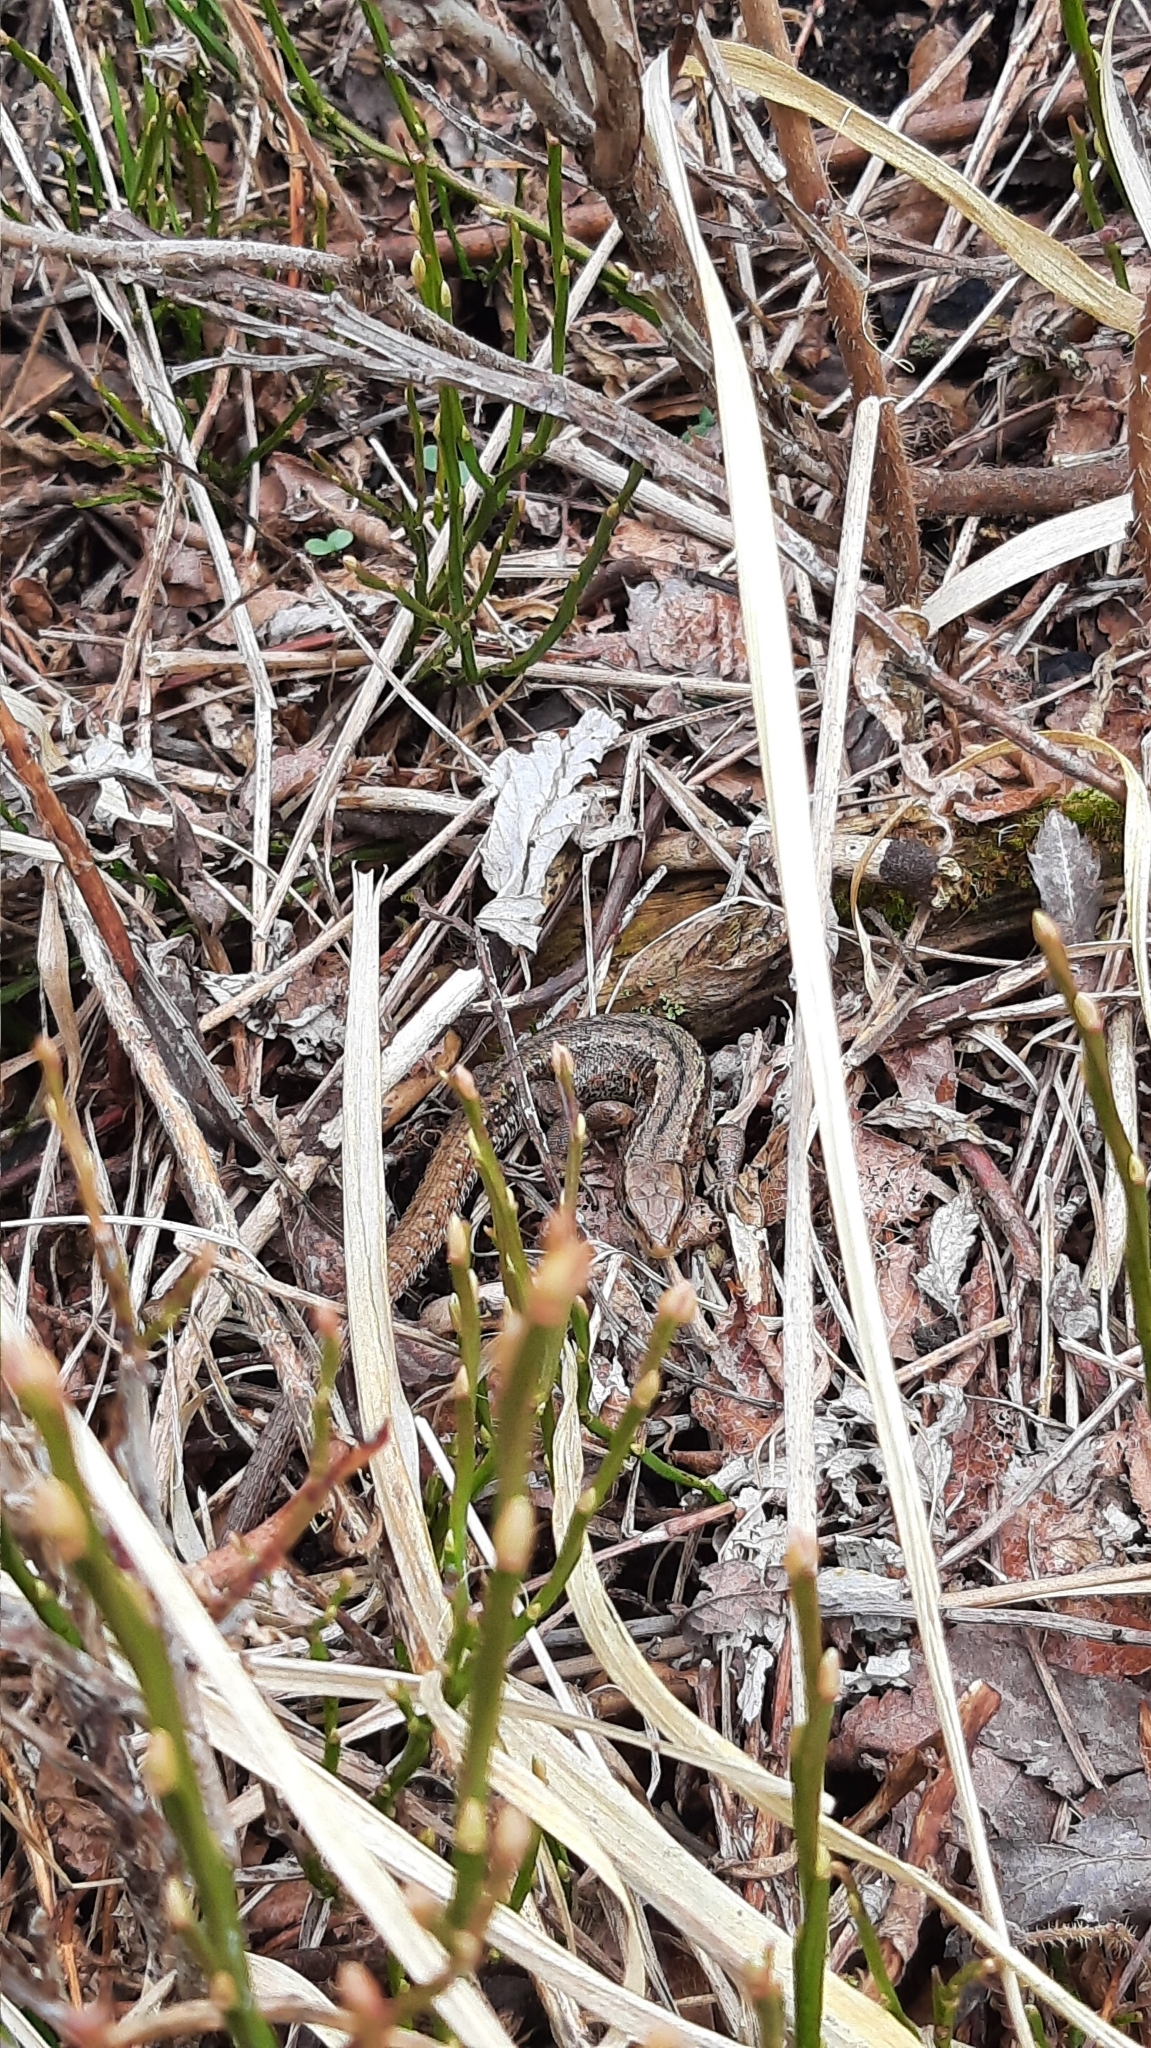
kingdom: Animalia
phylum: Chordata
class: Squamata
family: Lacertidae
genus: Zootoca
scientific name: Zootoca vivipara
